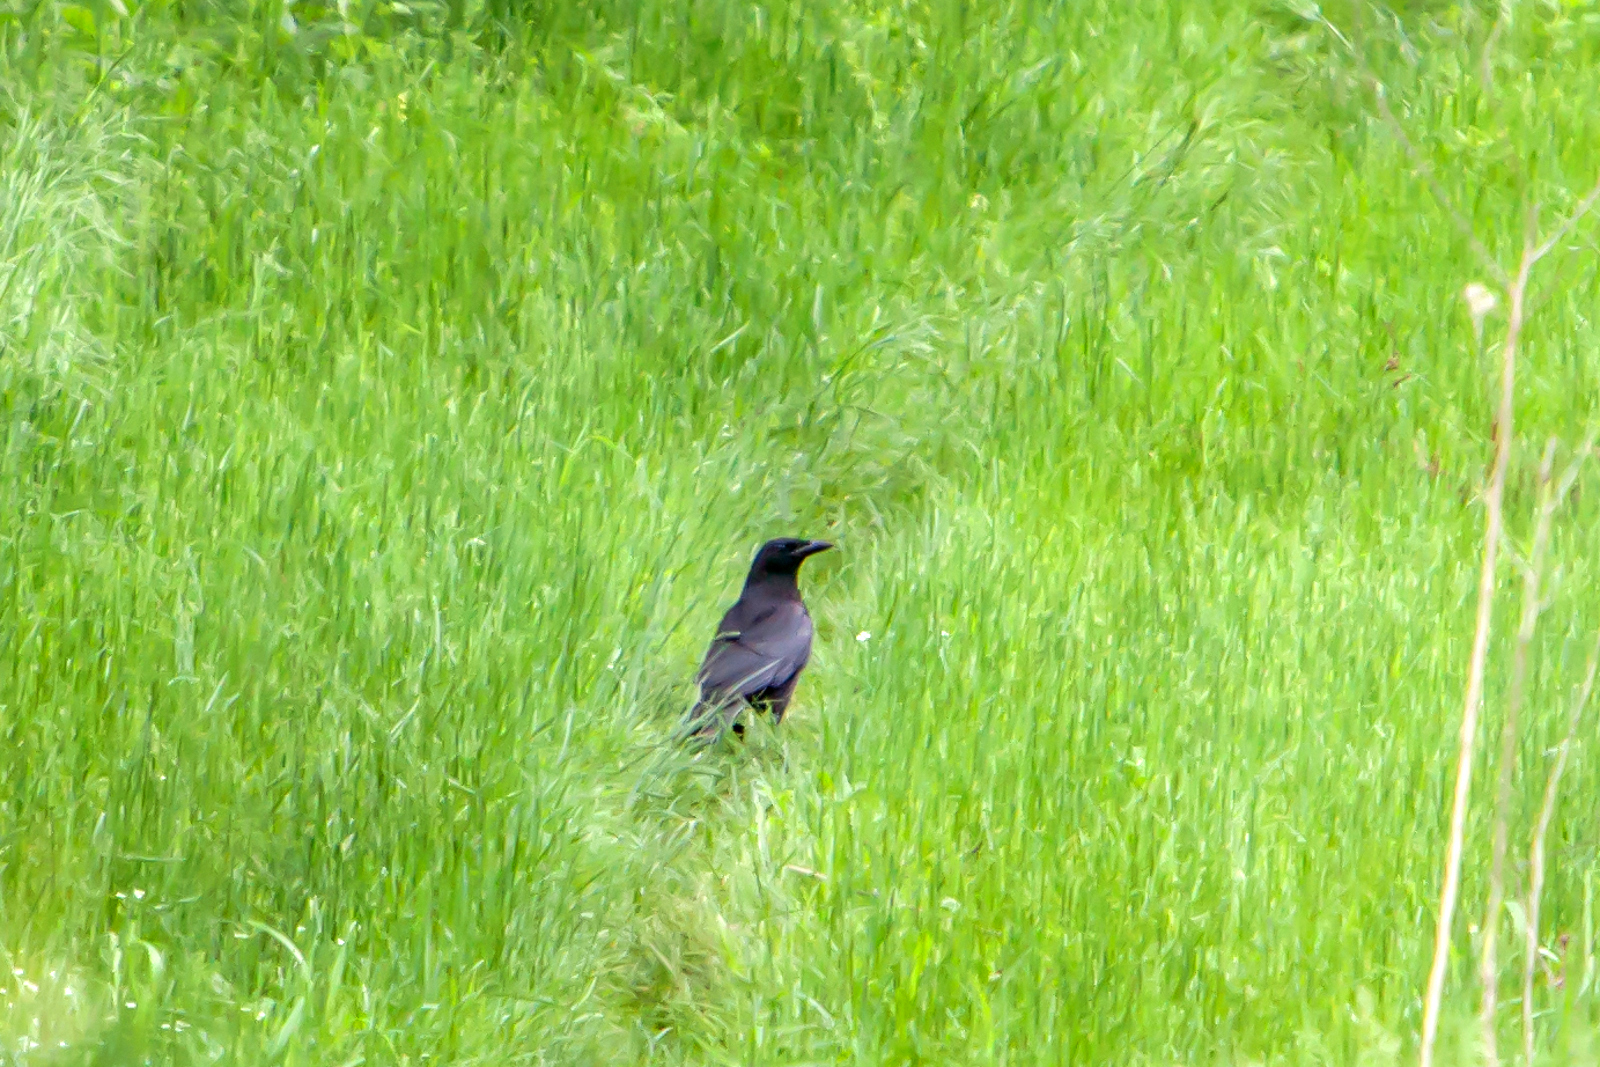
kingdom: Animalia
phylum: Chordata
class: Aves
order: Passeriformes
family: Corvidae
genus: Corvus
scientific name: Corvus brachyrhynchos
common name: American crow
